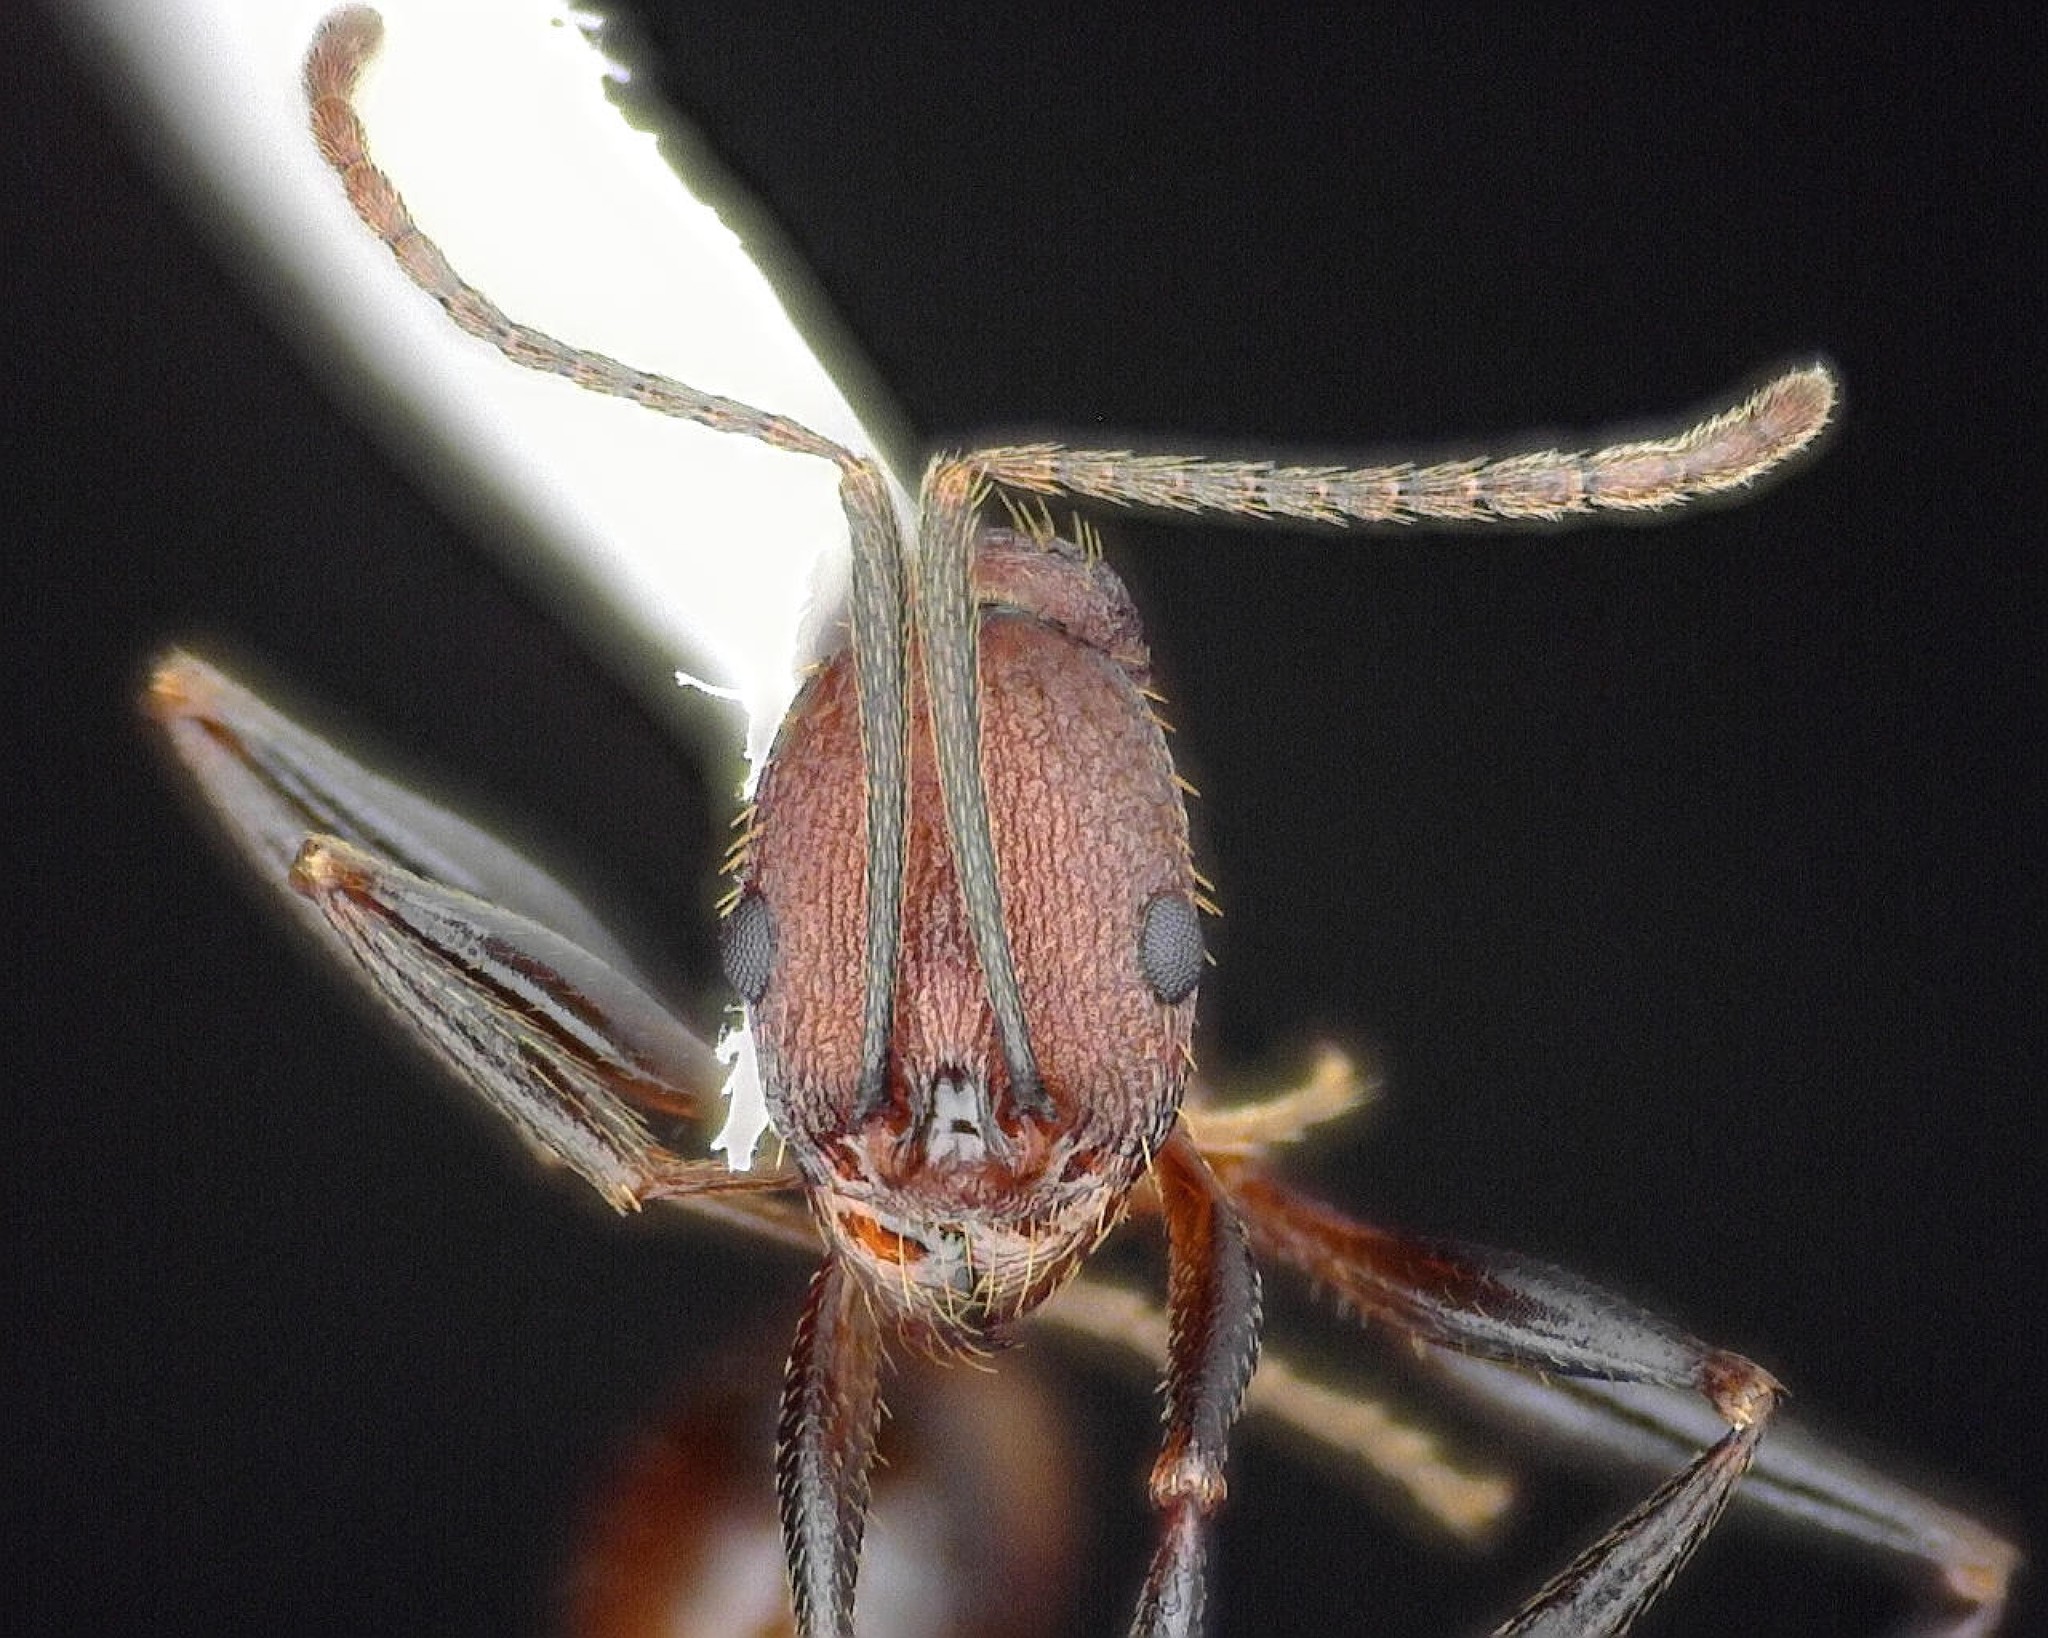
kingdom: Animalia
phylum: Arthropoda
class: Insecta
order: Hymenoptera
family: Formicidae
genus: Aphaenogaster
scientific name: Aphaenogaster lamellidens
